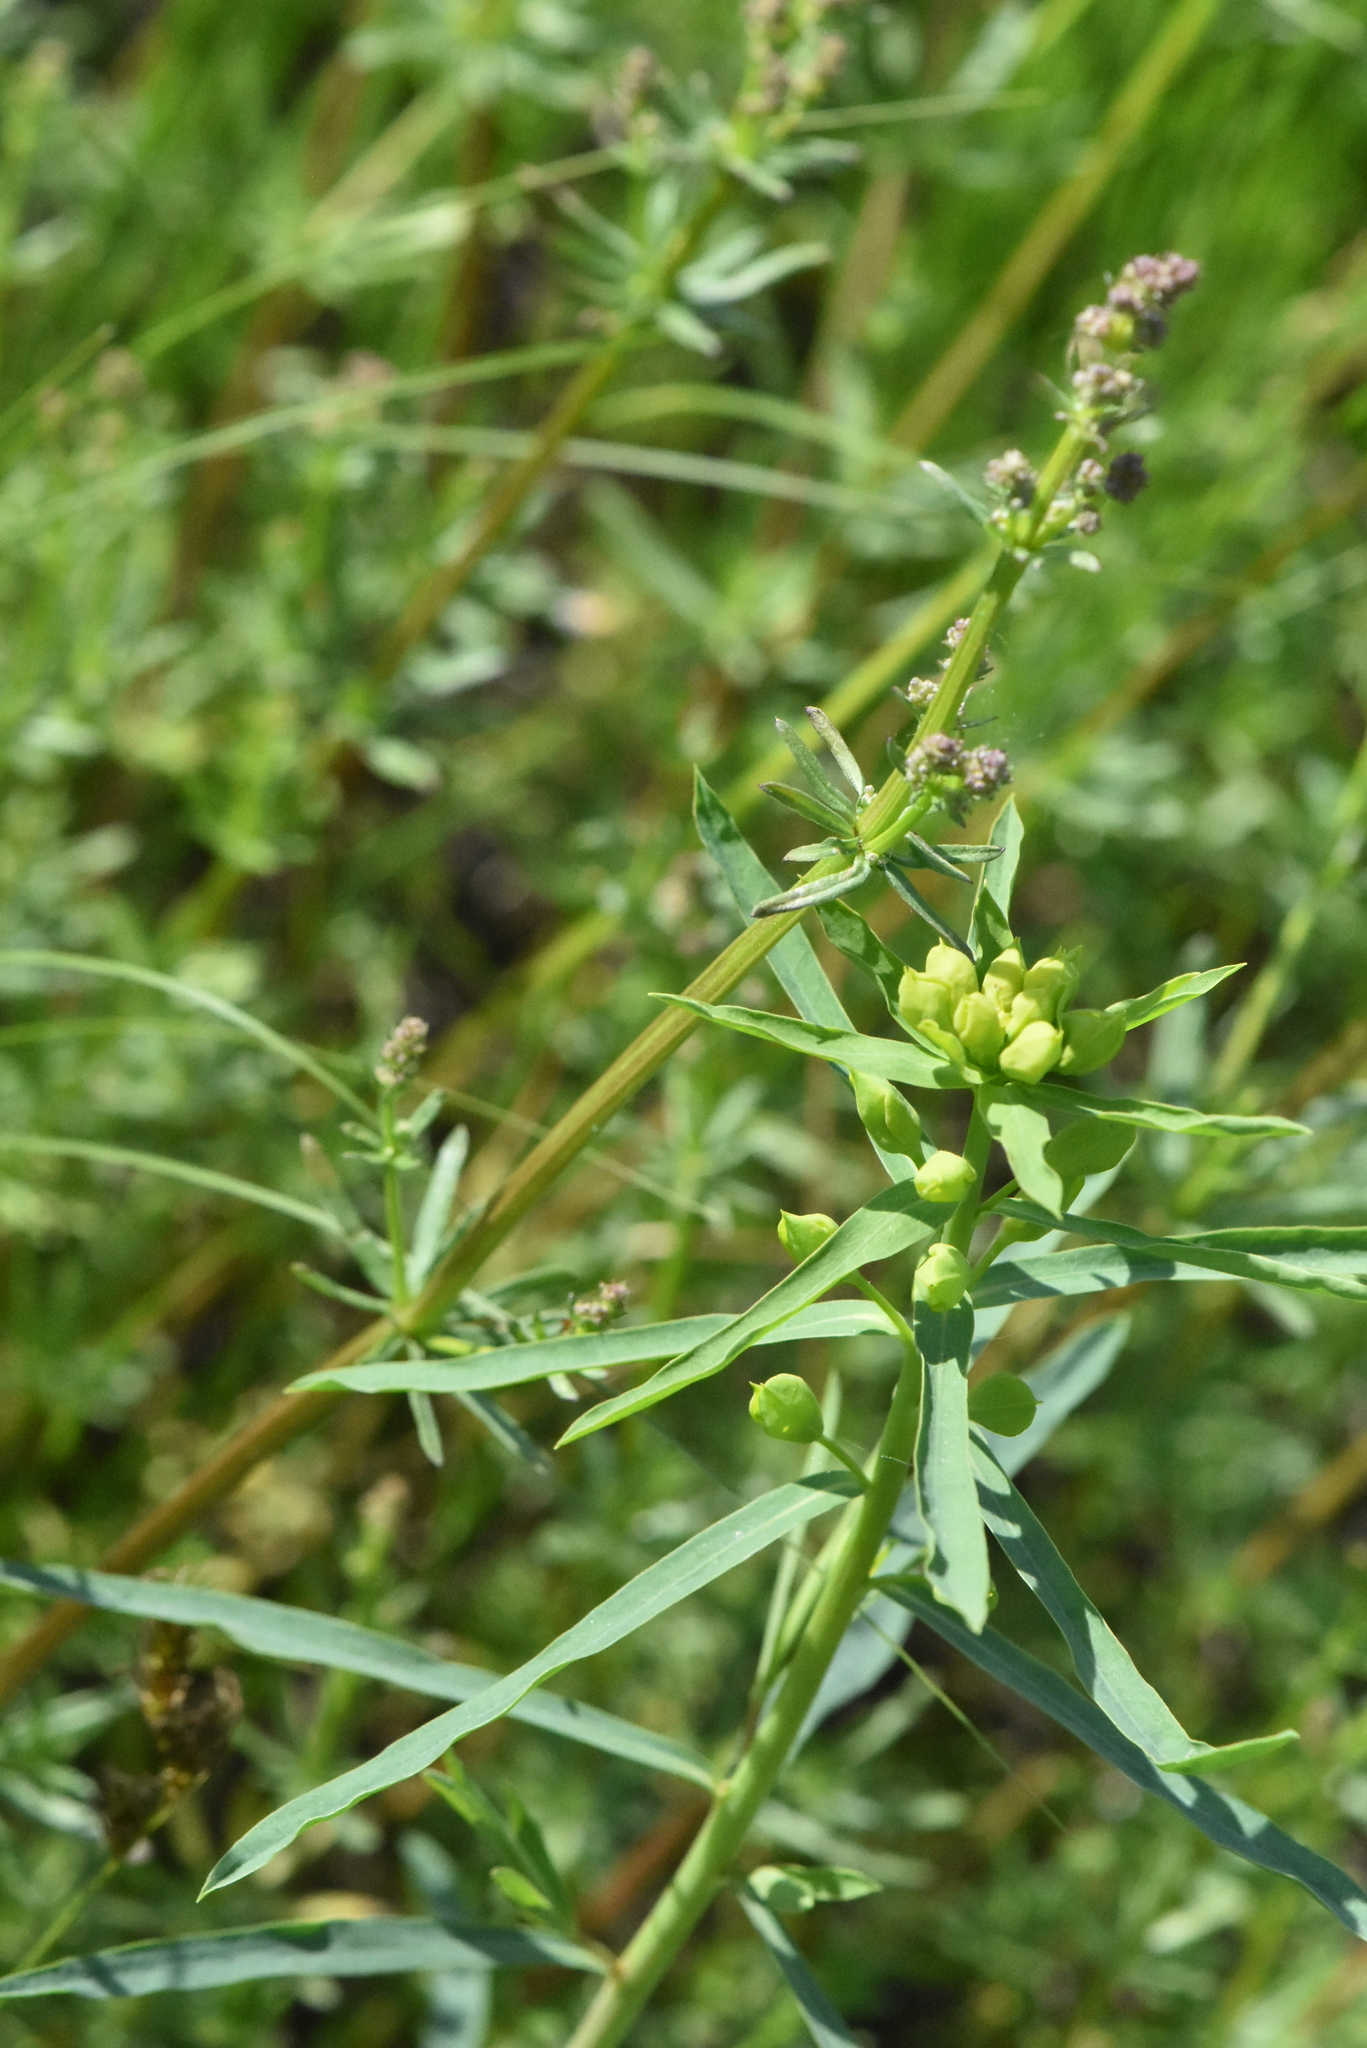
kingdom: Plantae
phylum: Tracheophyta
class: Magnoliopsida
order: Malpighiales
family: Euphorbiaceae
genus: Euphorbia
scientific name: Euphorbia virgata
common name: Leafy spurge
